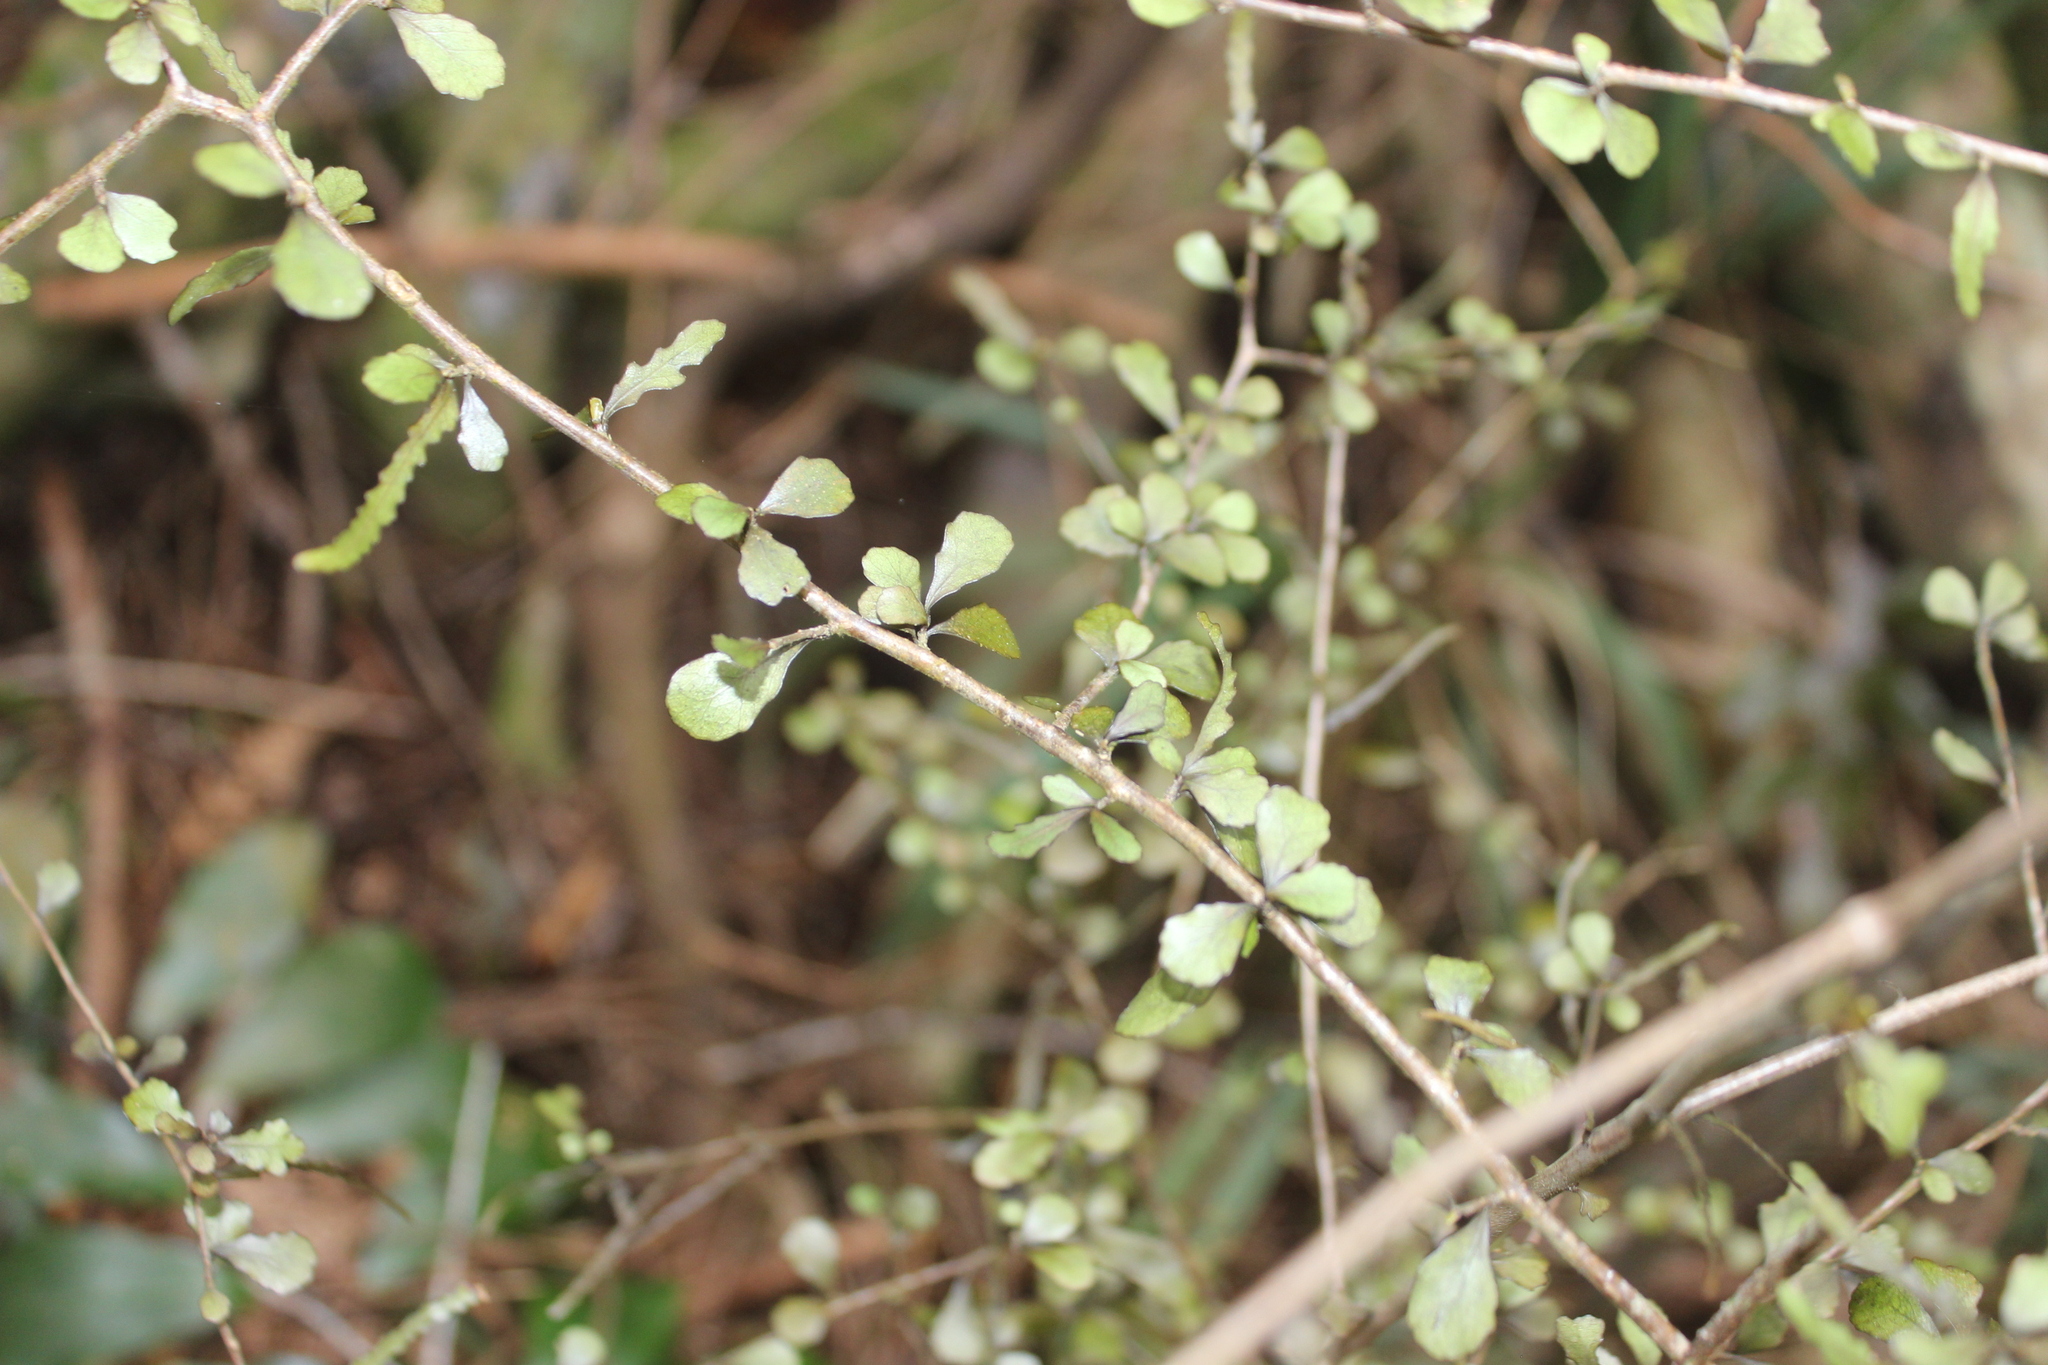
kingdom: Plantae
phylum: Tracheophyta
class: Magnoliopsida
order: Oxalidales
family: Elaeocarpaceae
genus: Elaeocarpus
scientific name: Elaeocarpus hookerianus
